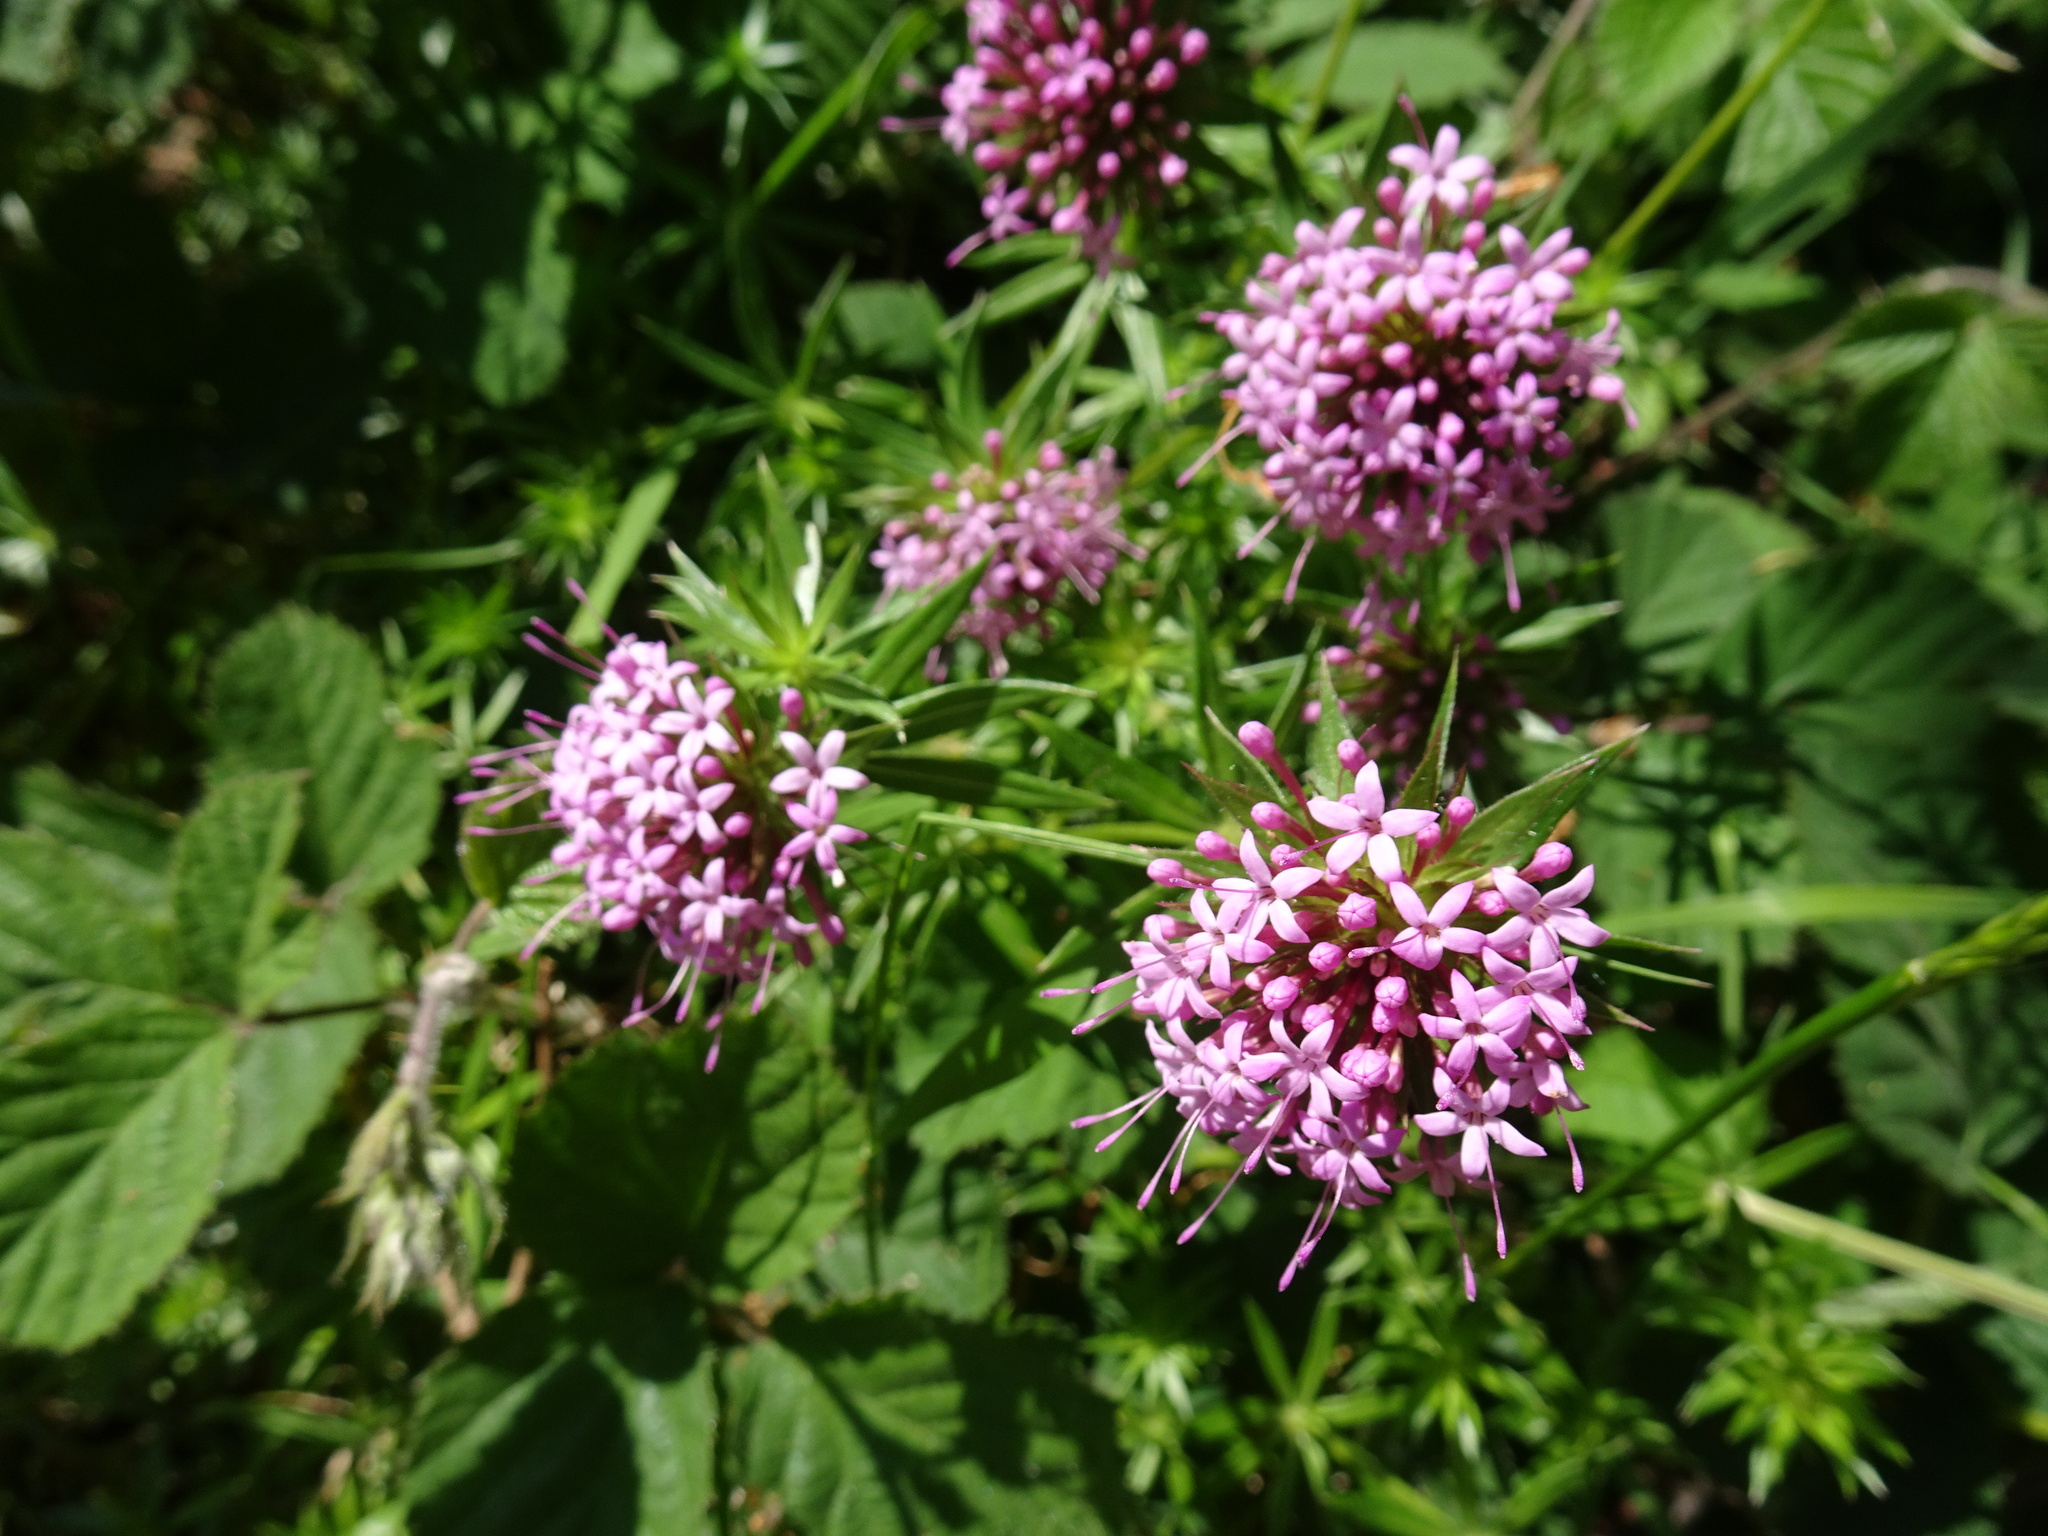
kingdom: Plantae
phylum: Tracheophyta
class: Magnoliopsida
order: Gentianales
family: Rubiaceae
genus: Phuopsis
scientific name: Phuopsis stylosa
